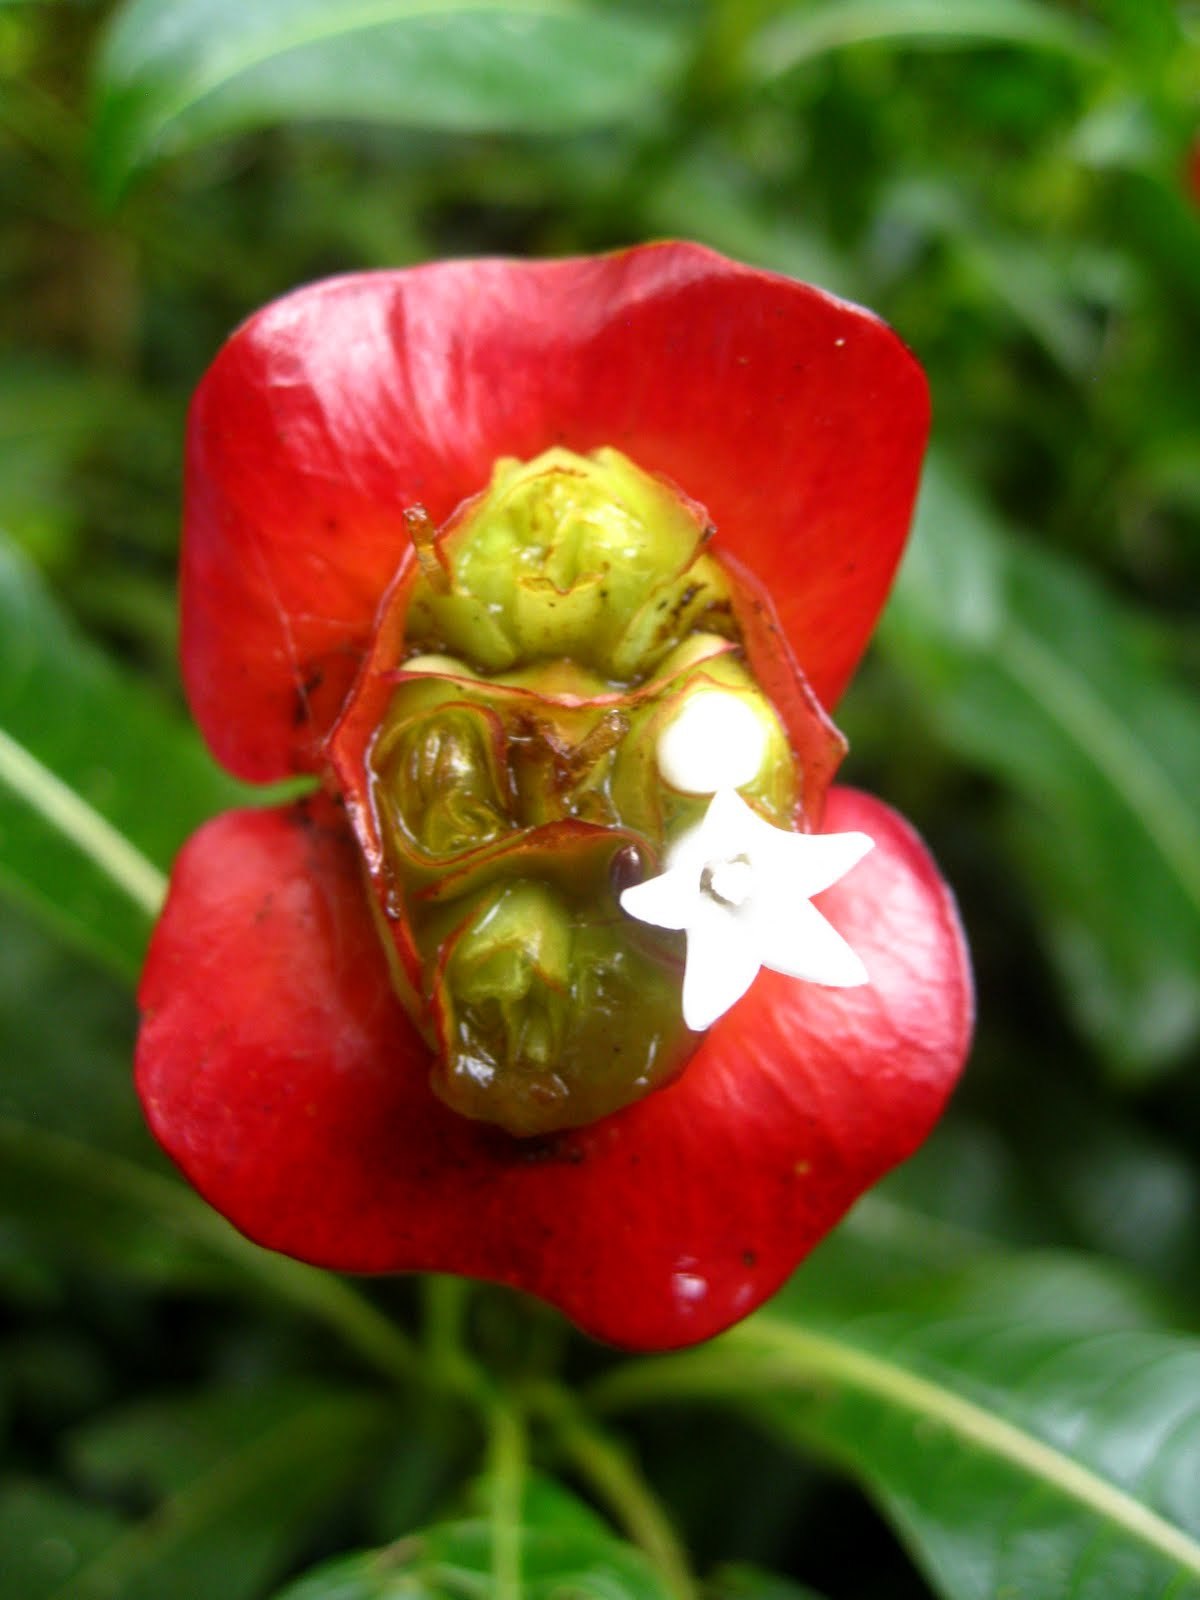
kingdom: Plantae
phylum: Tracheophyta
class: Magnoliopsida
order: Gentianales
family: Rubiaceae
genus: Palicourea
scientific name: Palicourea elata
